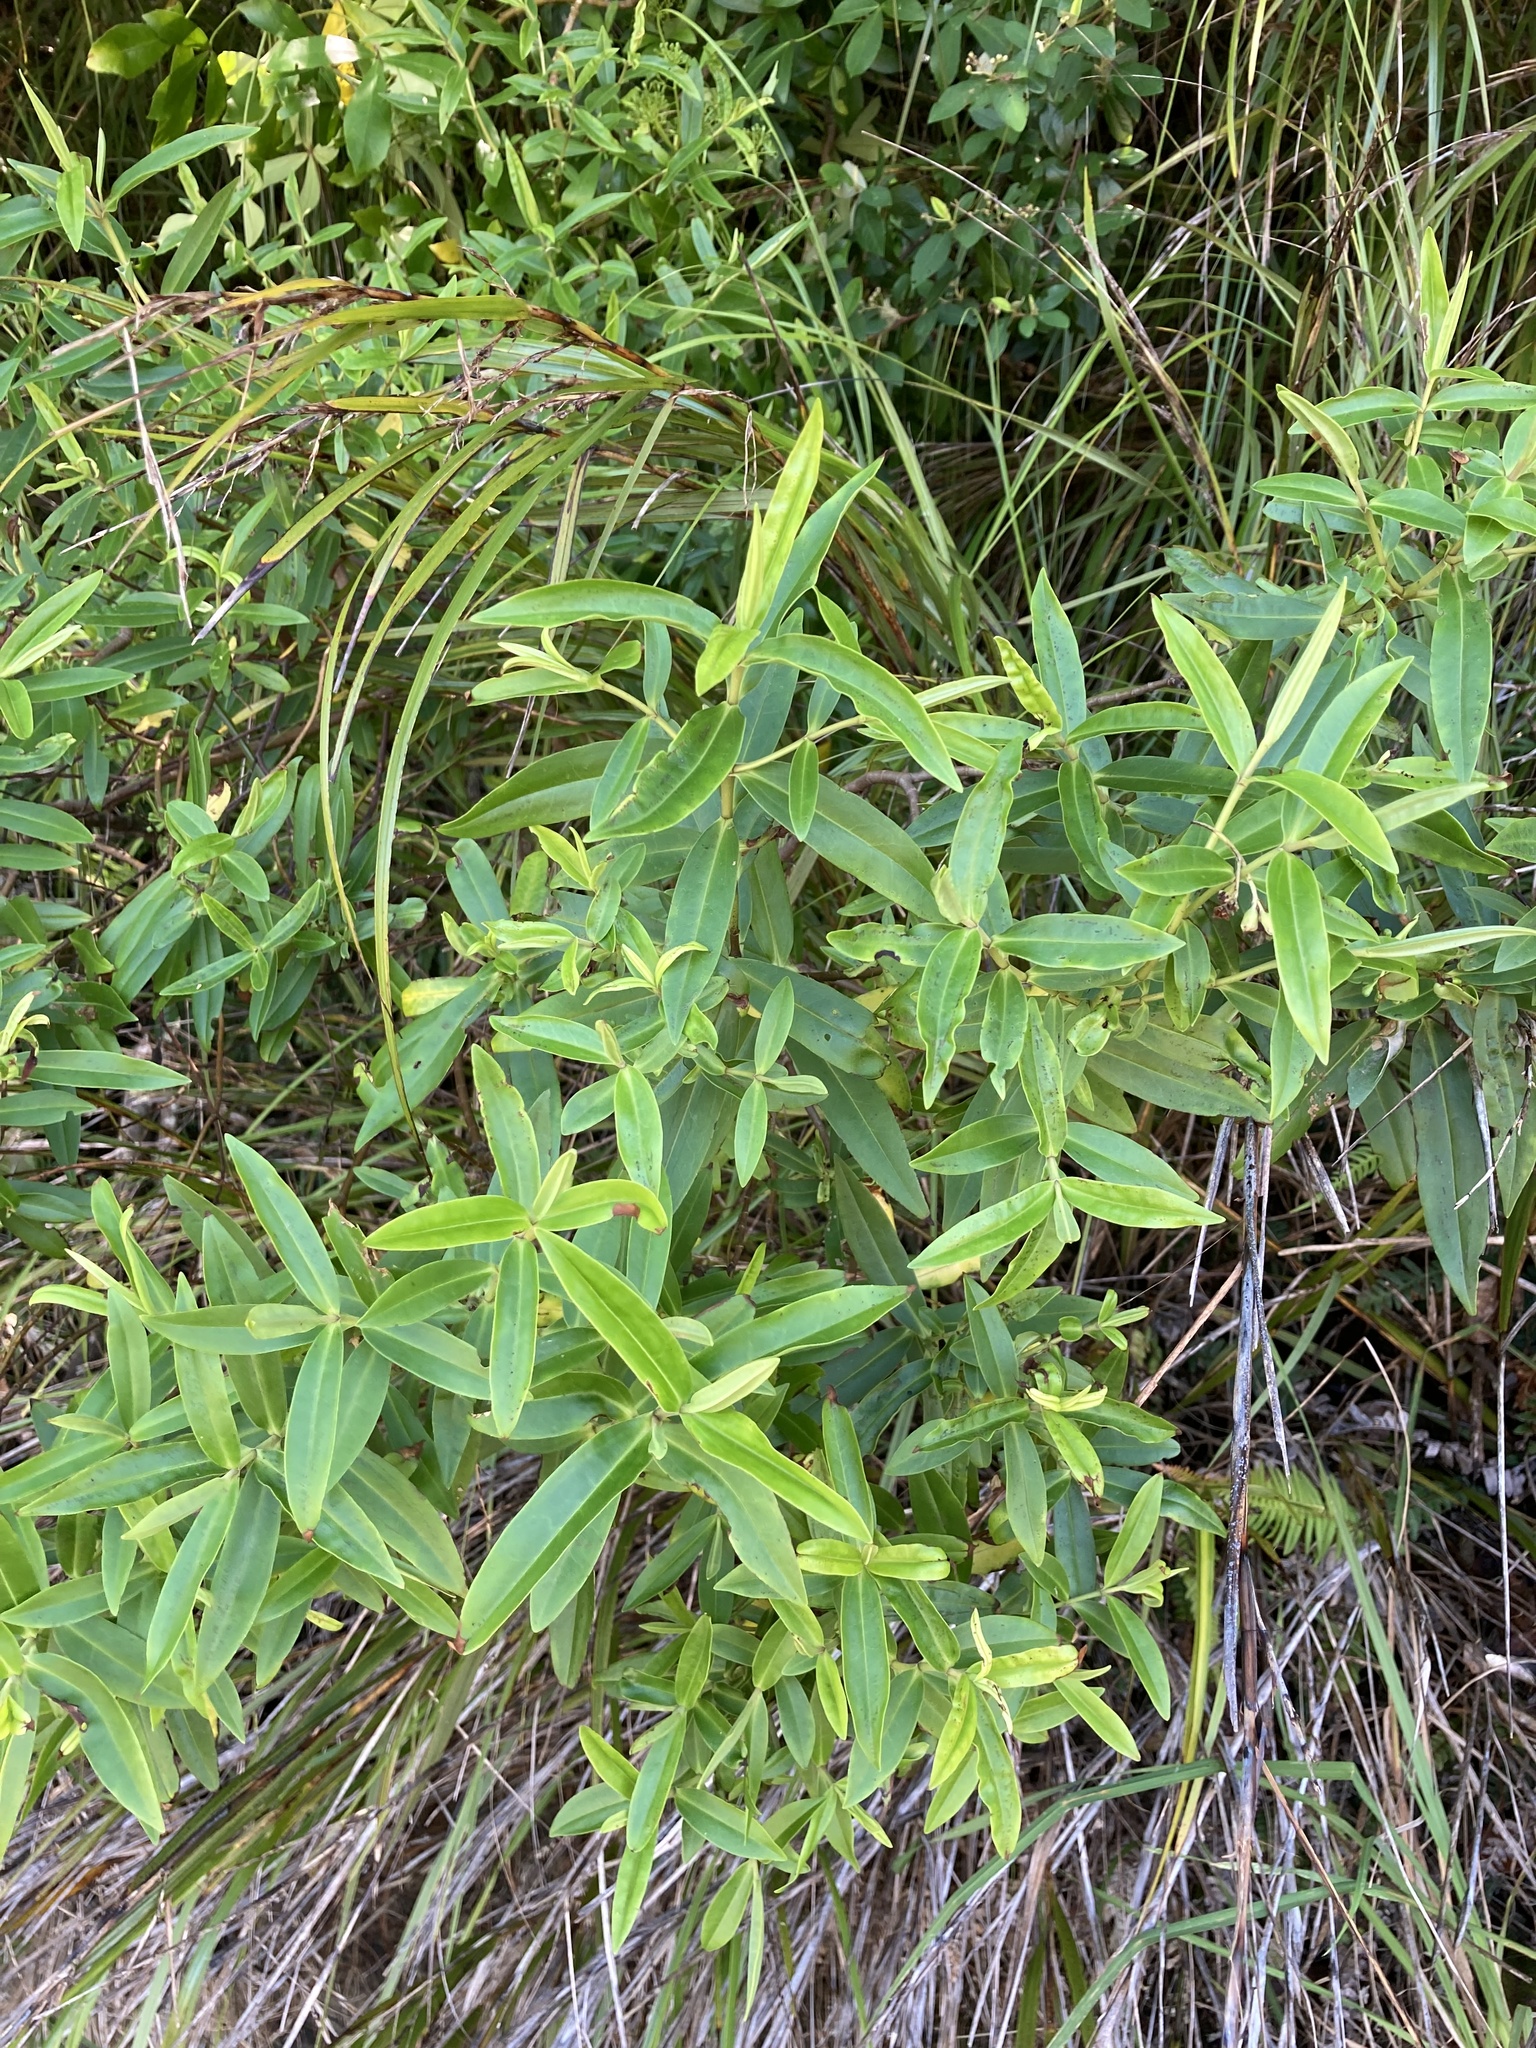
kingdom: Plantae
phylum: Tracheophyta
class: Magnoliopsida
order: Lamiales
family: Plantaginaceae
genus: Veronica
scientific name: Veronica stricta
